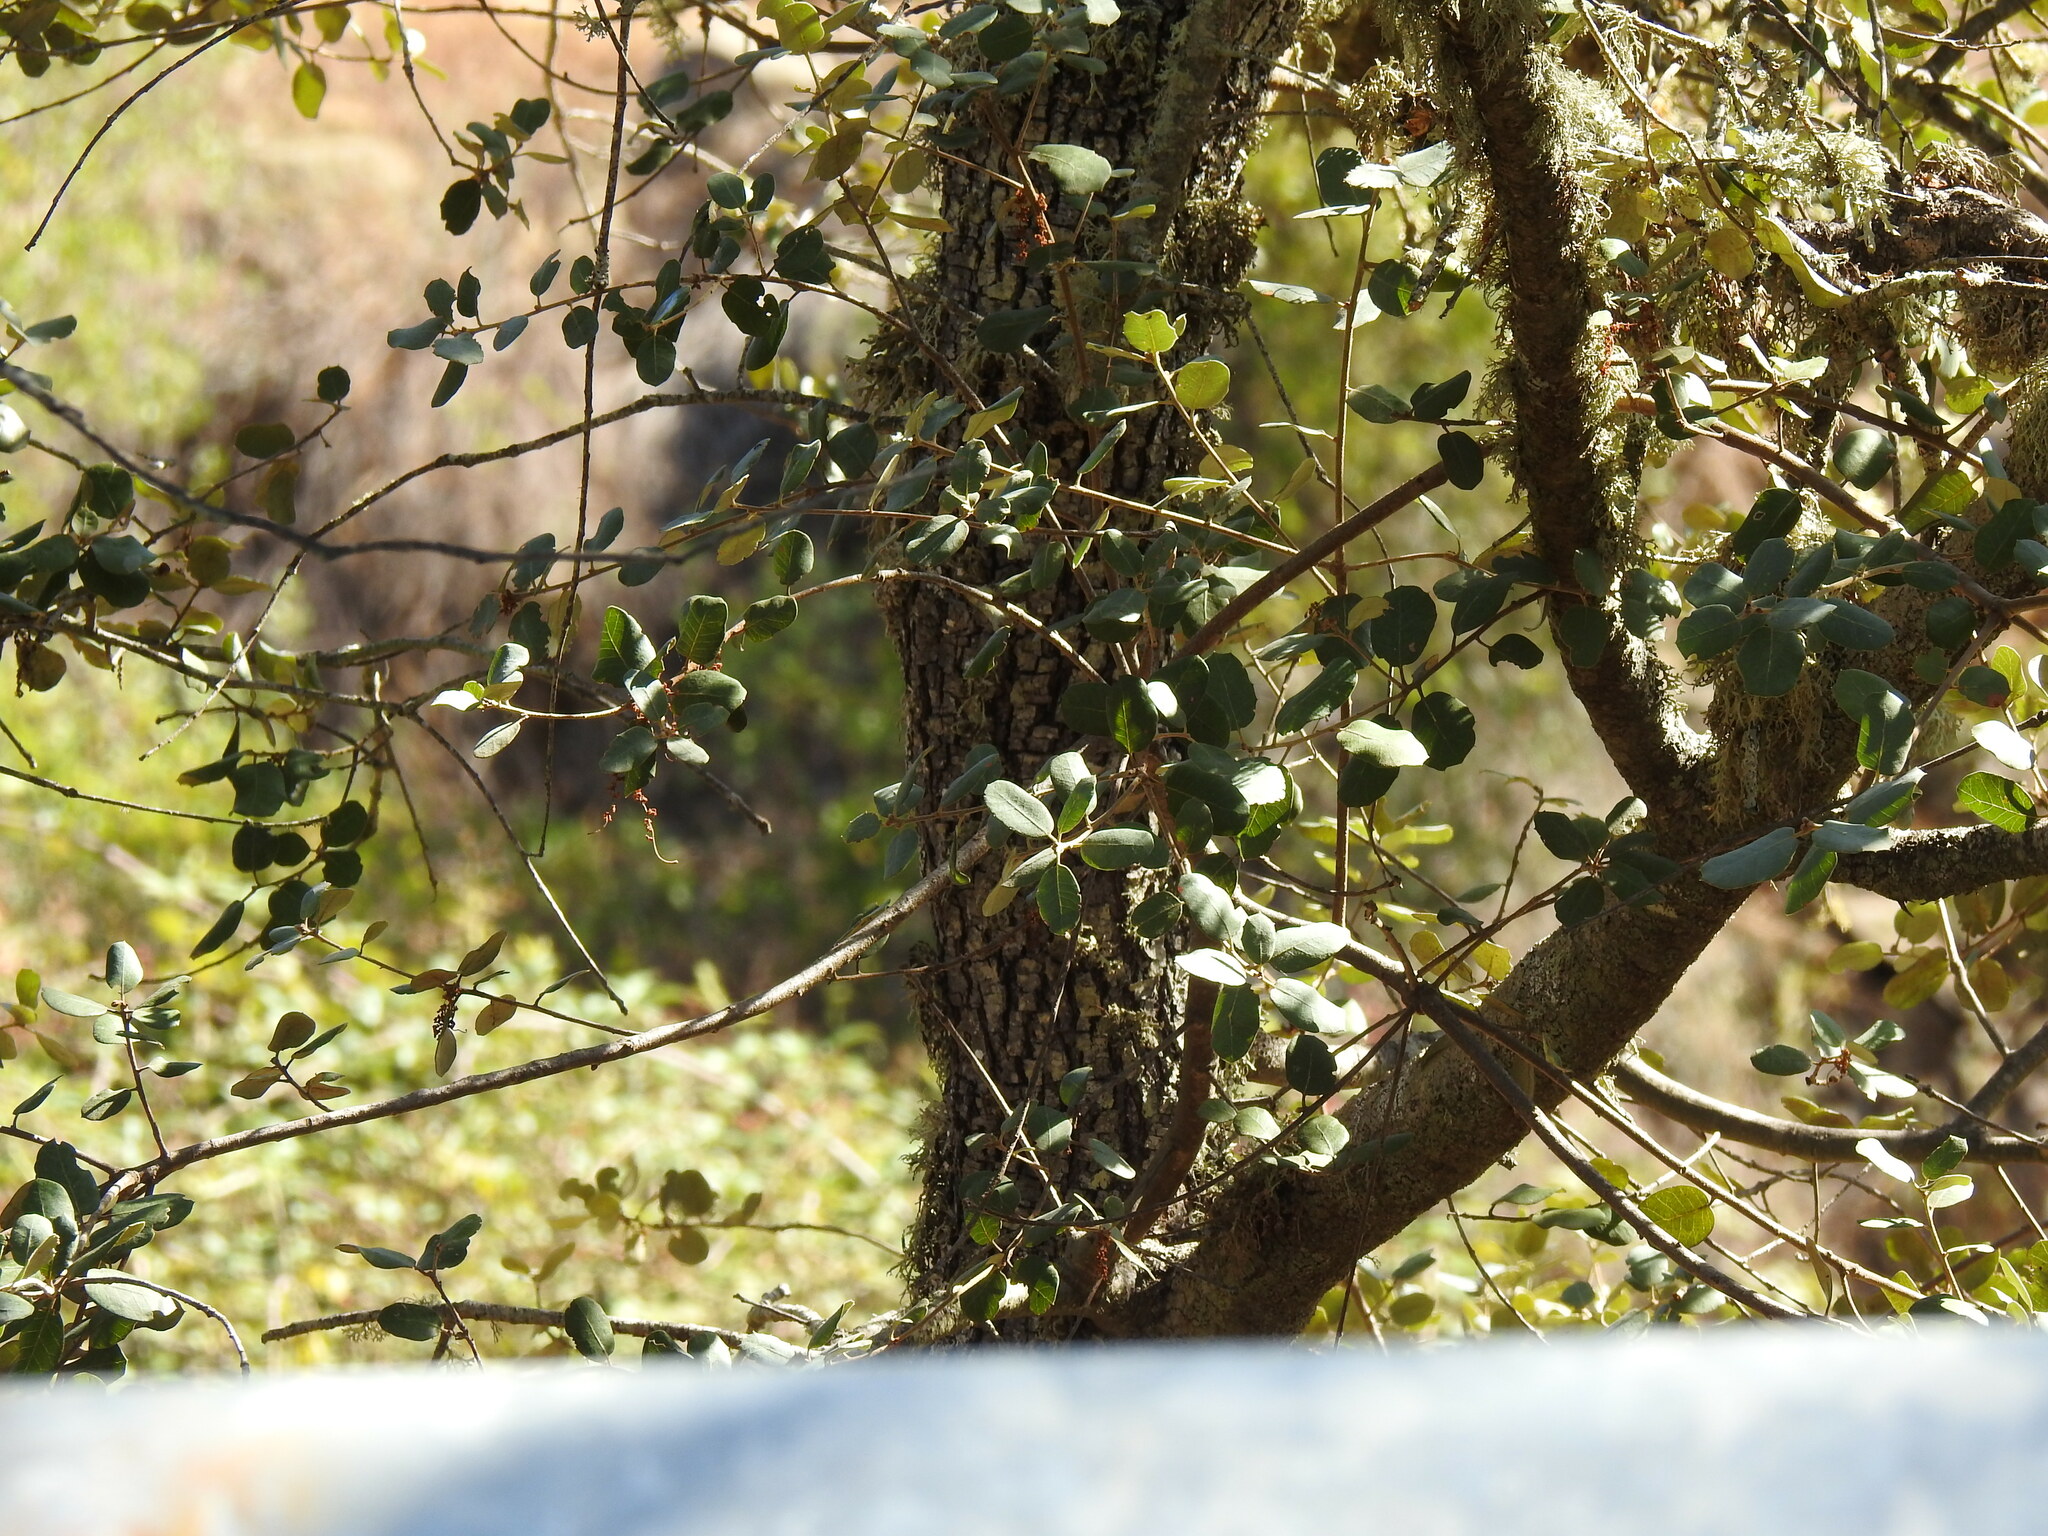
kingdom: Plantae
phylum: Tracheophyta
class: Magnoliopsida
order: Fagales
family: Fagaceae
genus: Quercus
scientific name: Quercus rotundifolia
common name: Holm oak
